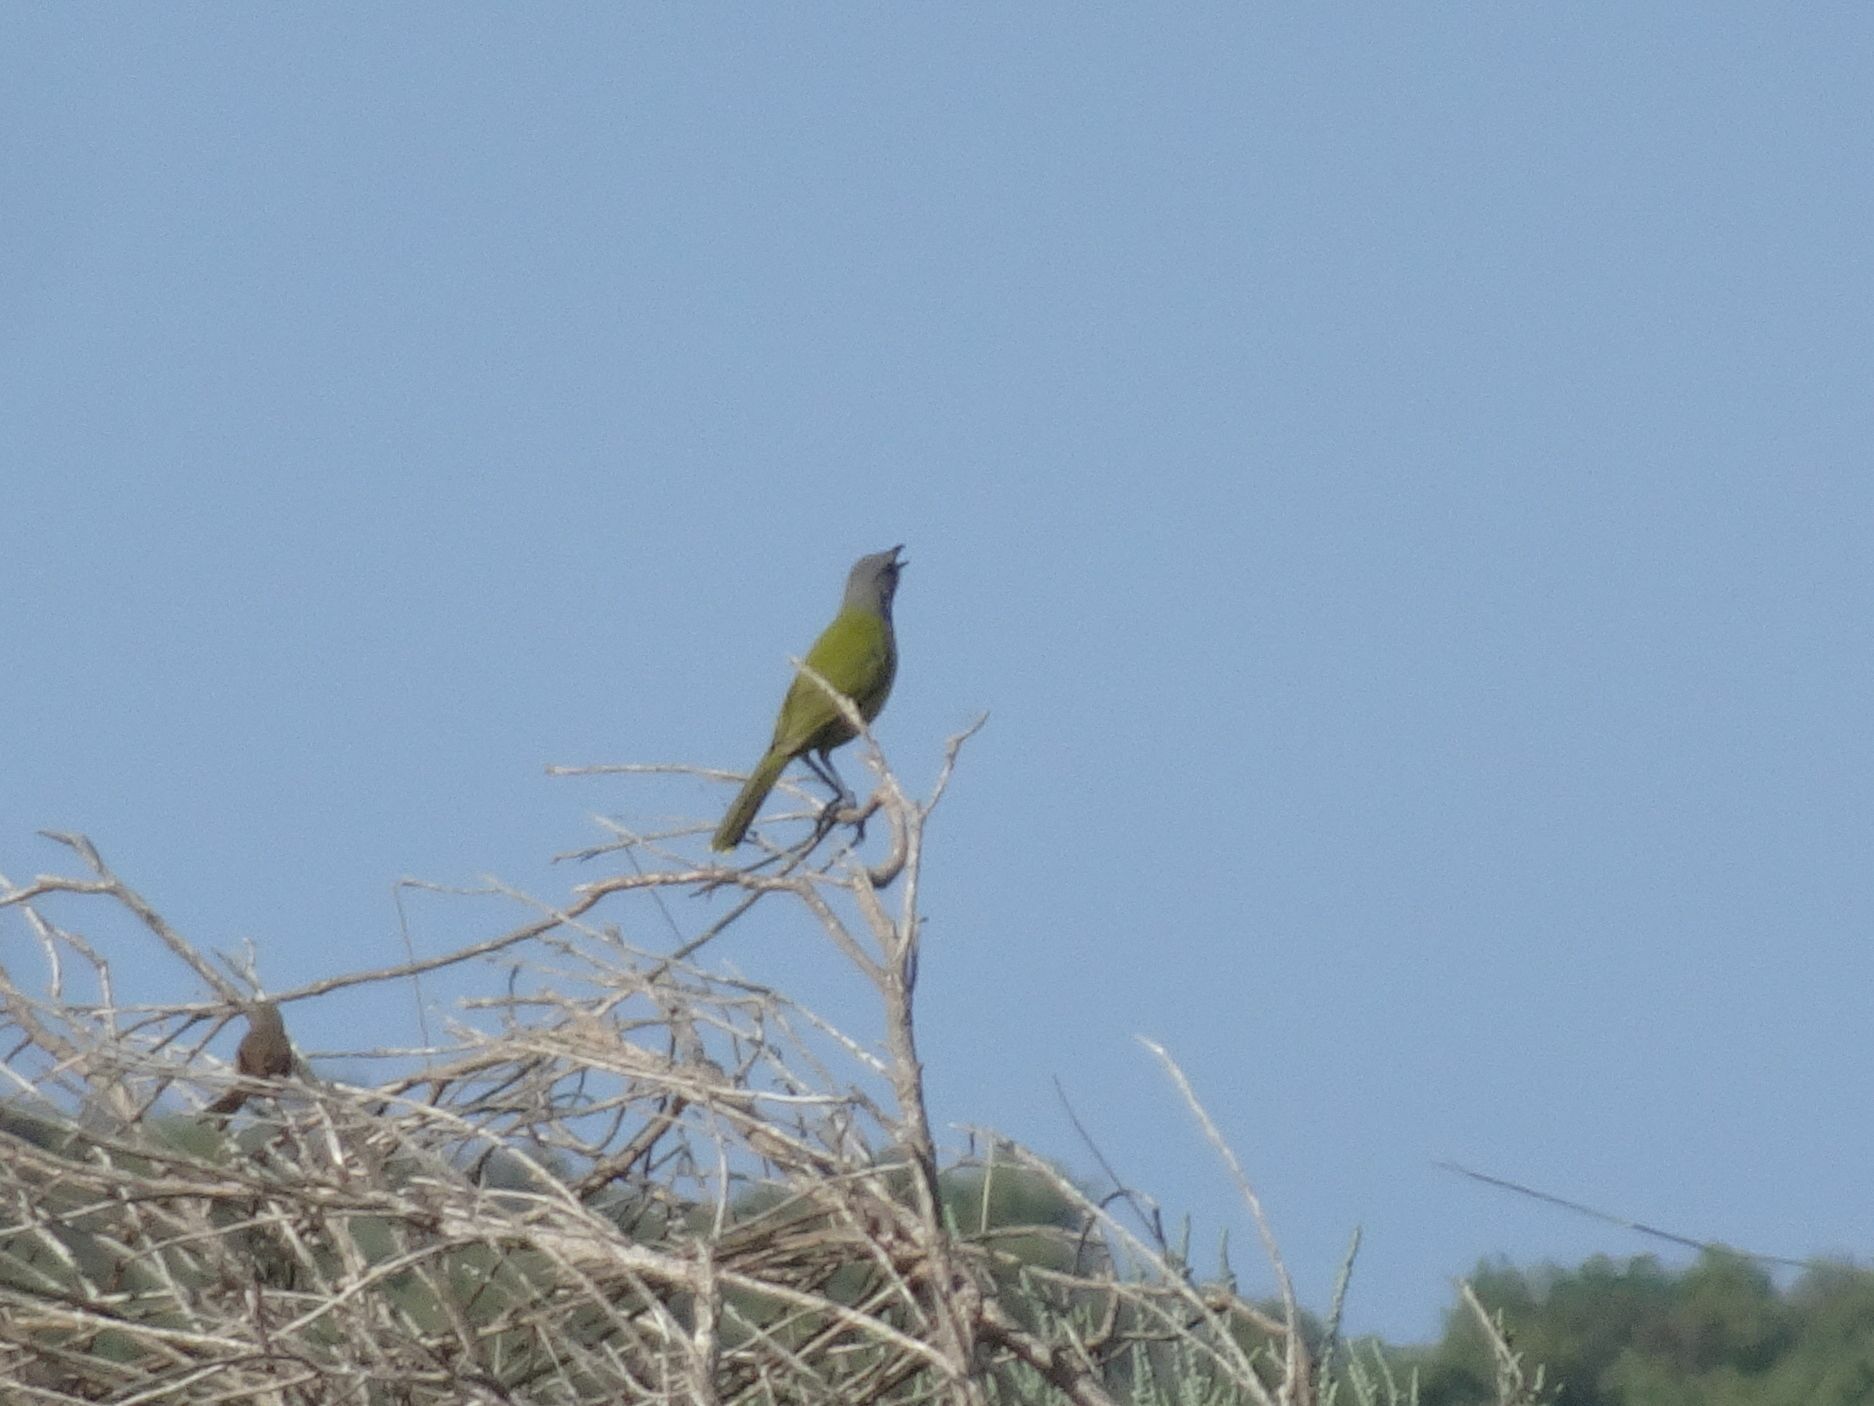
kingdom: Animalia
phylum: Chordata
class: Aves
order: Passeriformes
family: Malaconotidae
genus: Telophorus
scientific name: Telophorus zeylonus
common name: Bokmakierie
